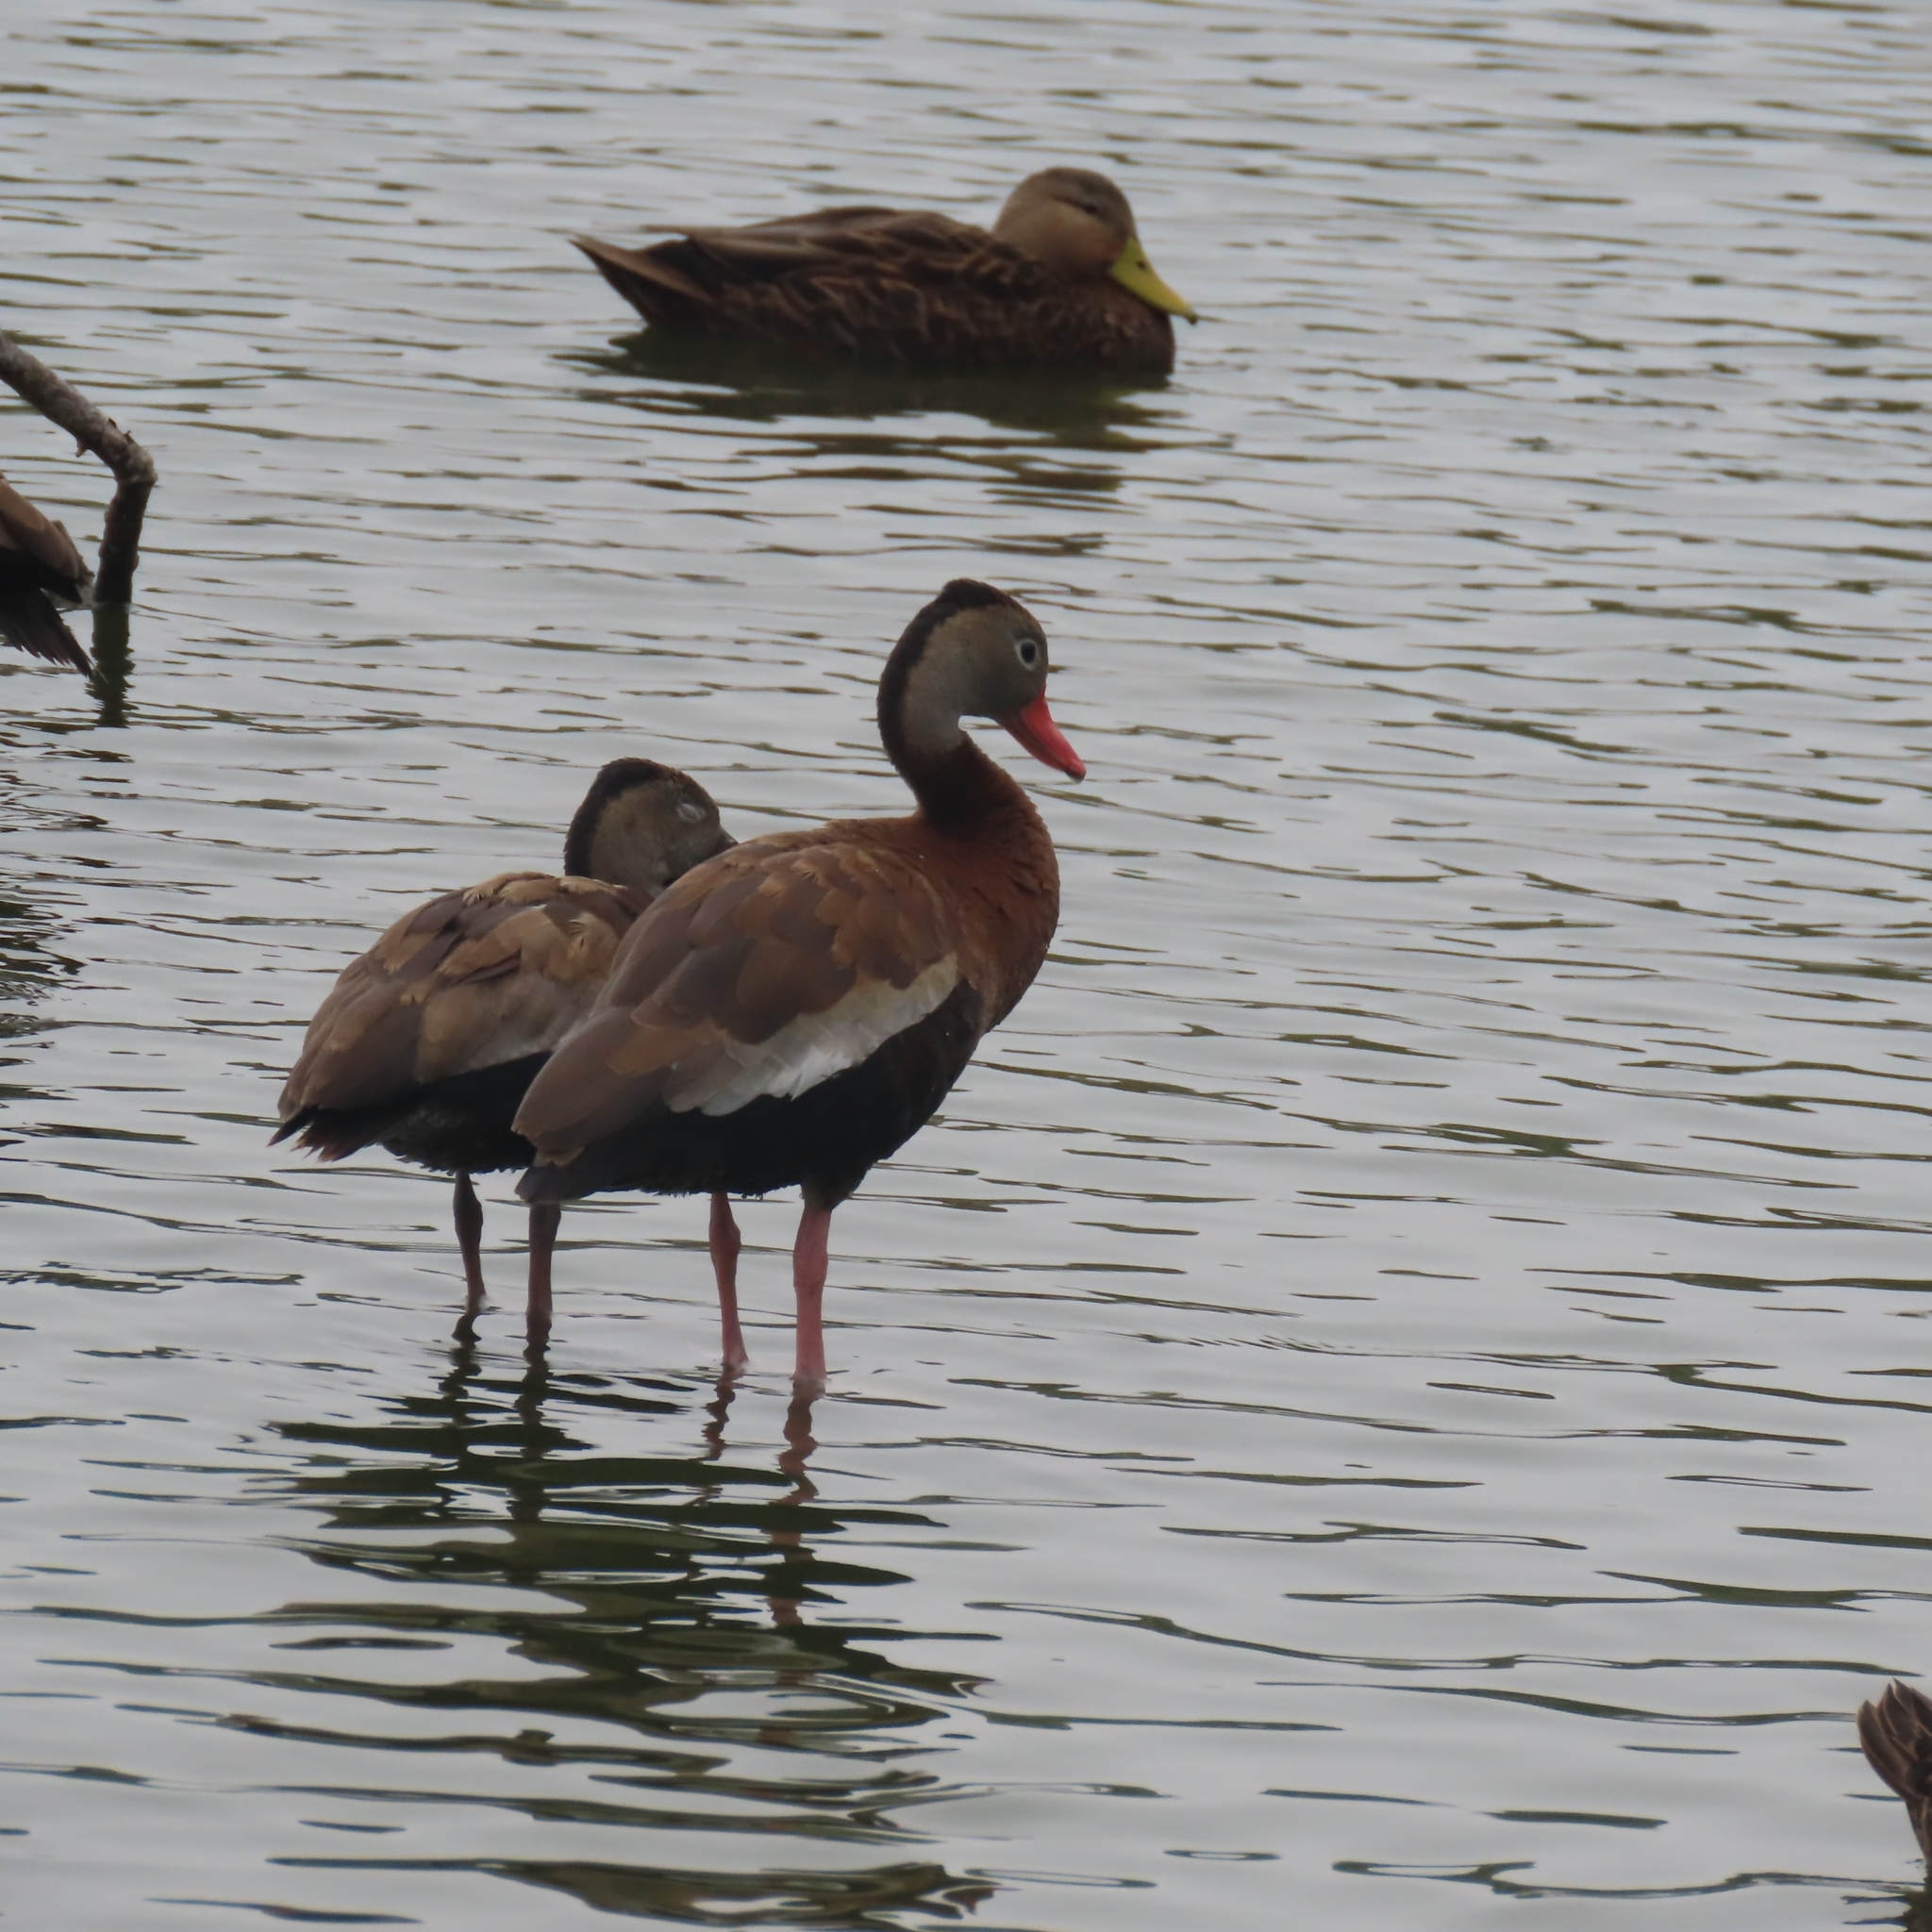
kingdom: Animalia
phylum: Chordata
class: Aves
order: Anseriformes
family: Anatidae
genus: Dendrocygna
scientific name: Dendrocygna autumnalis
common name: Black-bellied whistling duck
